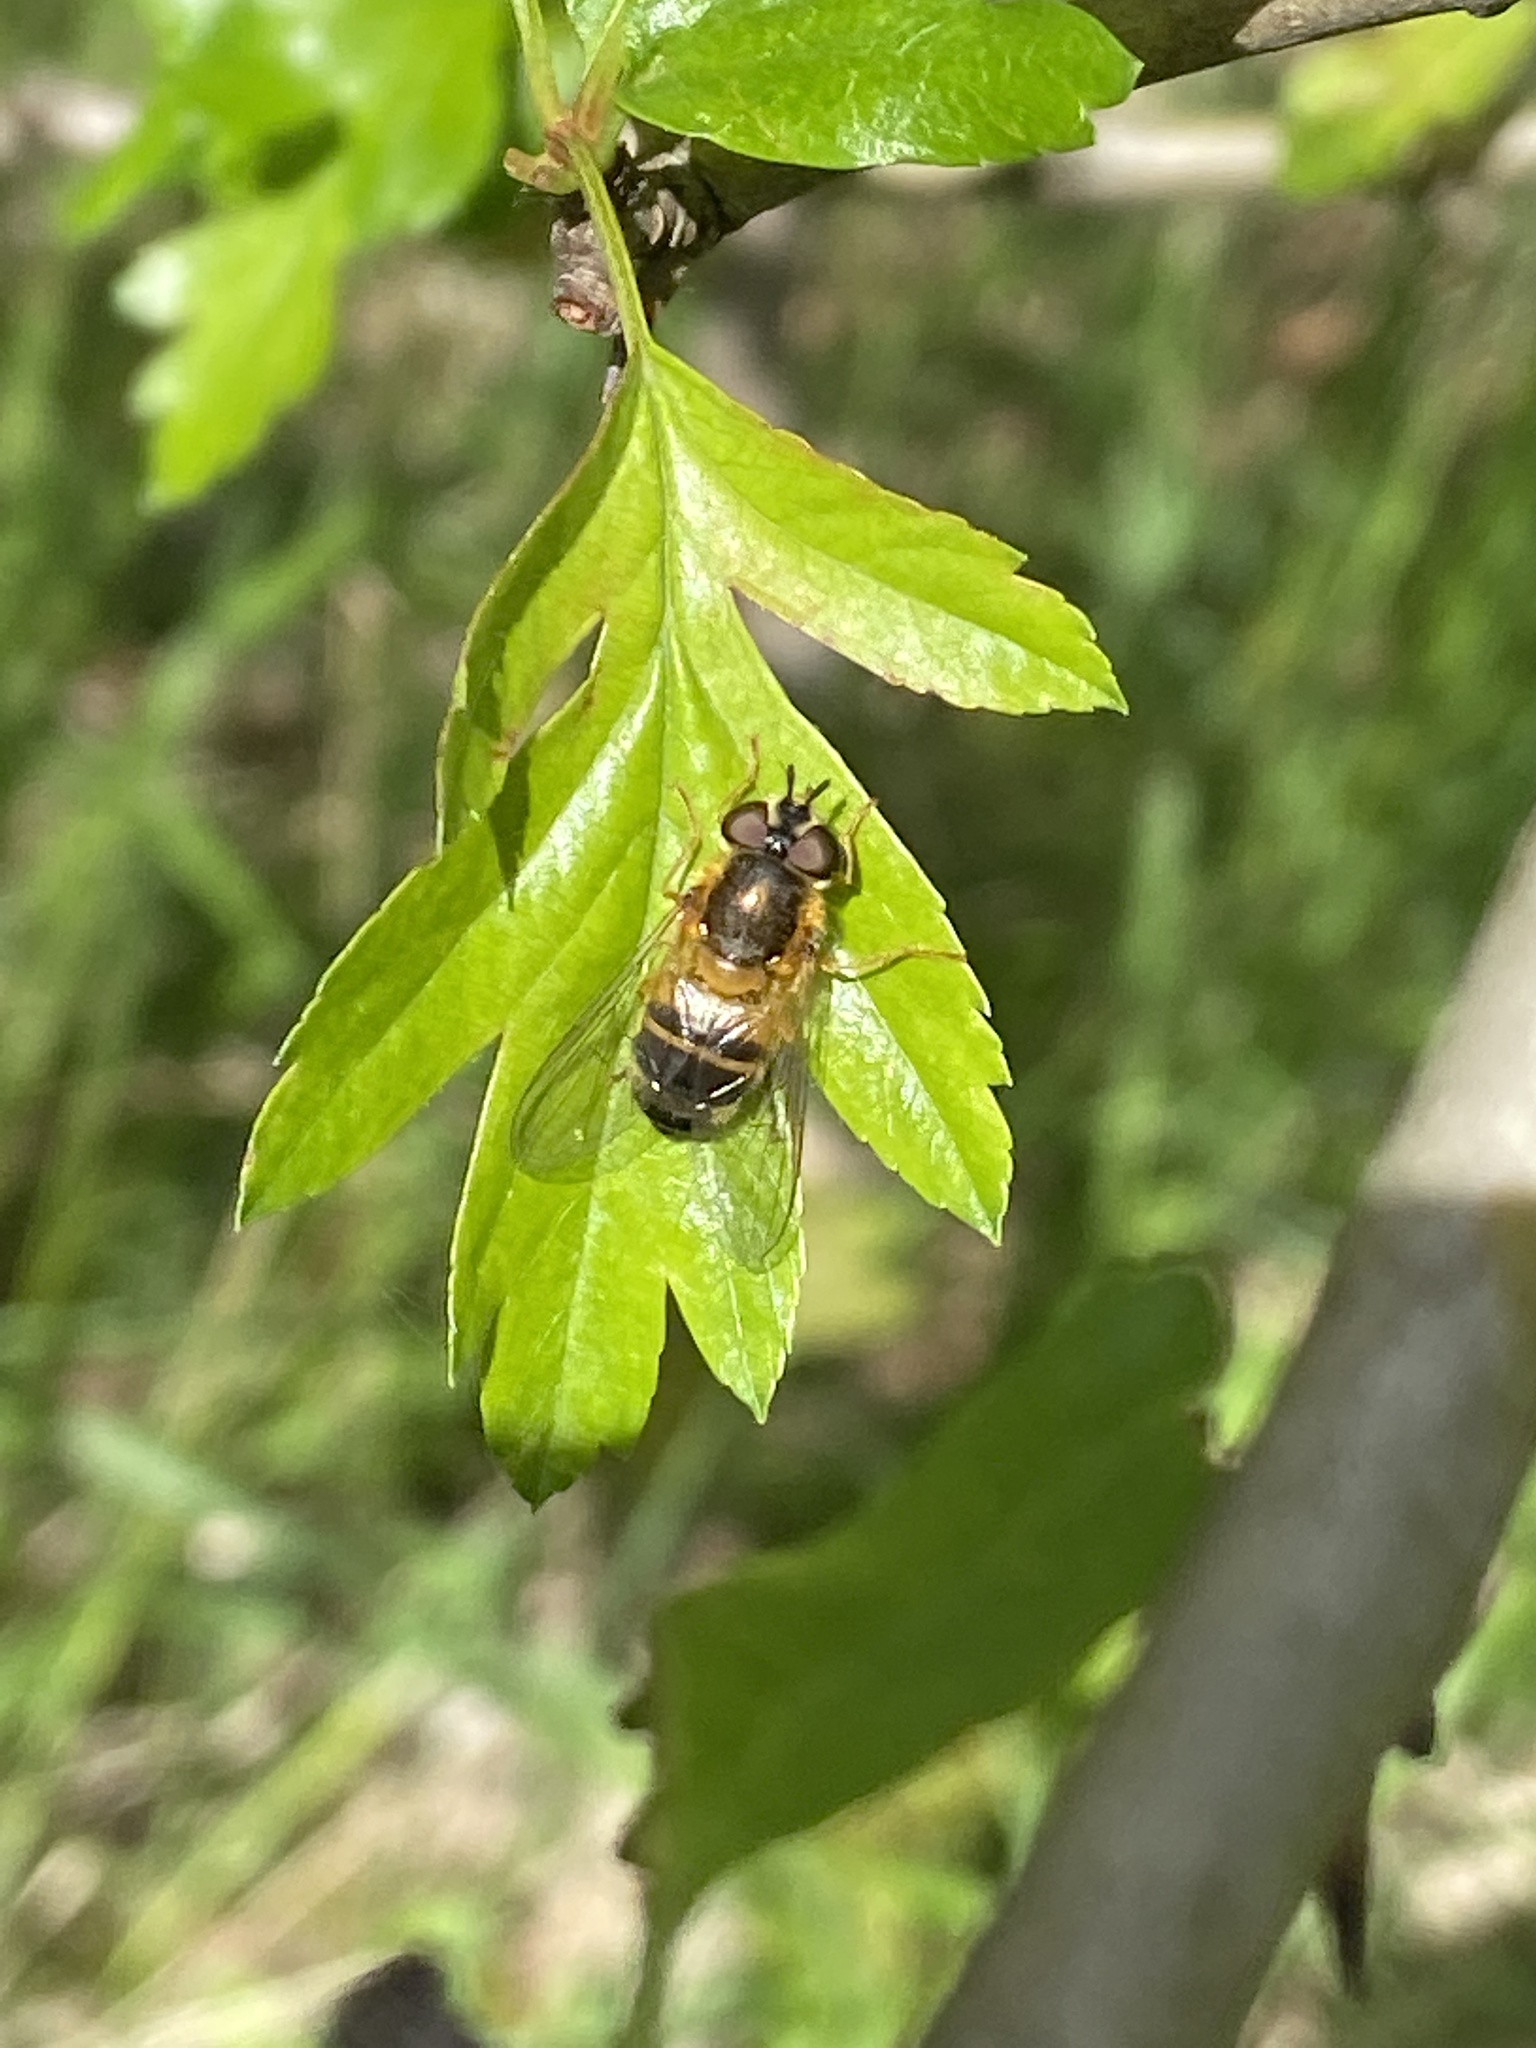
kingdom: Animalia
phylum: Arthropoda
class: Insecta
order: Diptera
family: Syrphidae
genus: Epistrophe
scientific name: Epistrophe eligans
